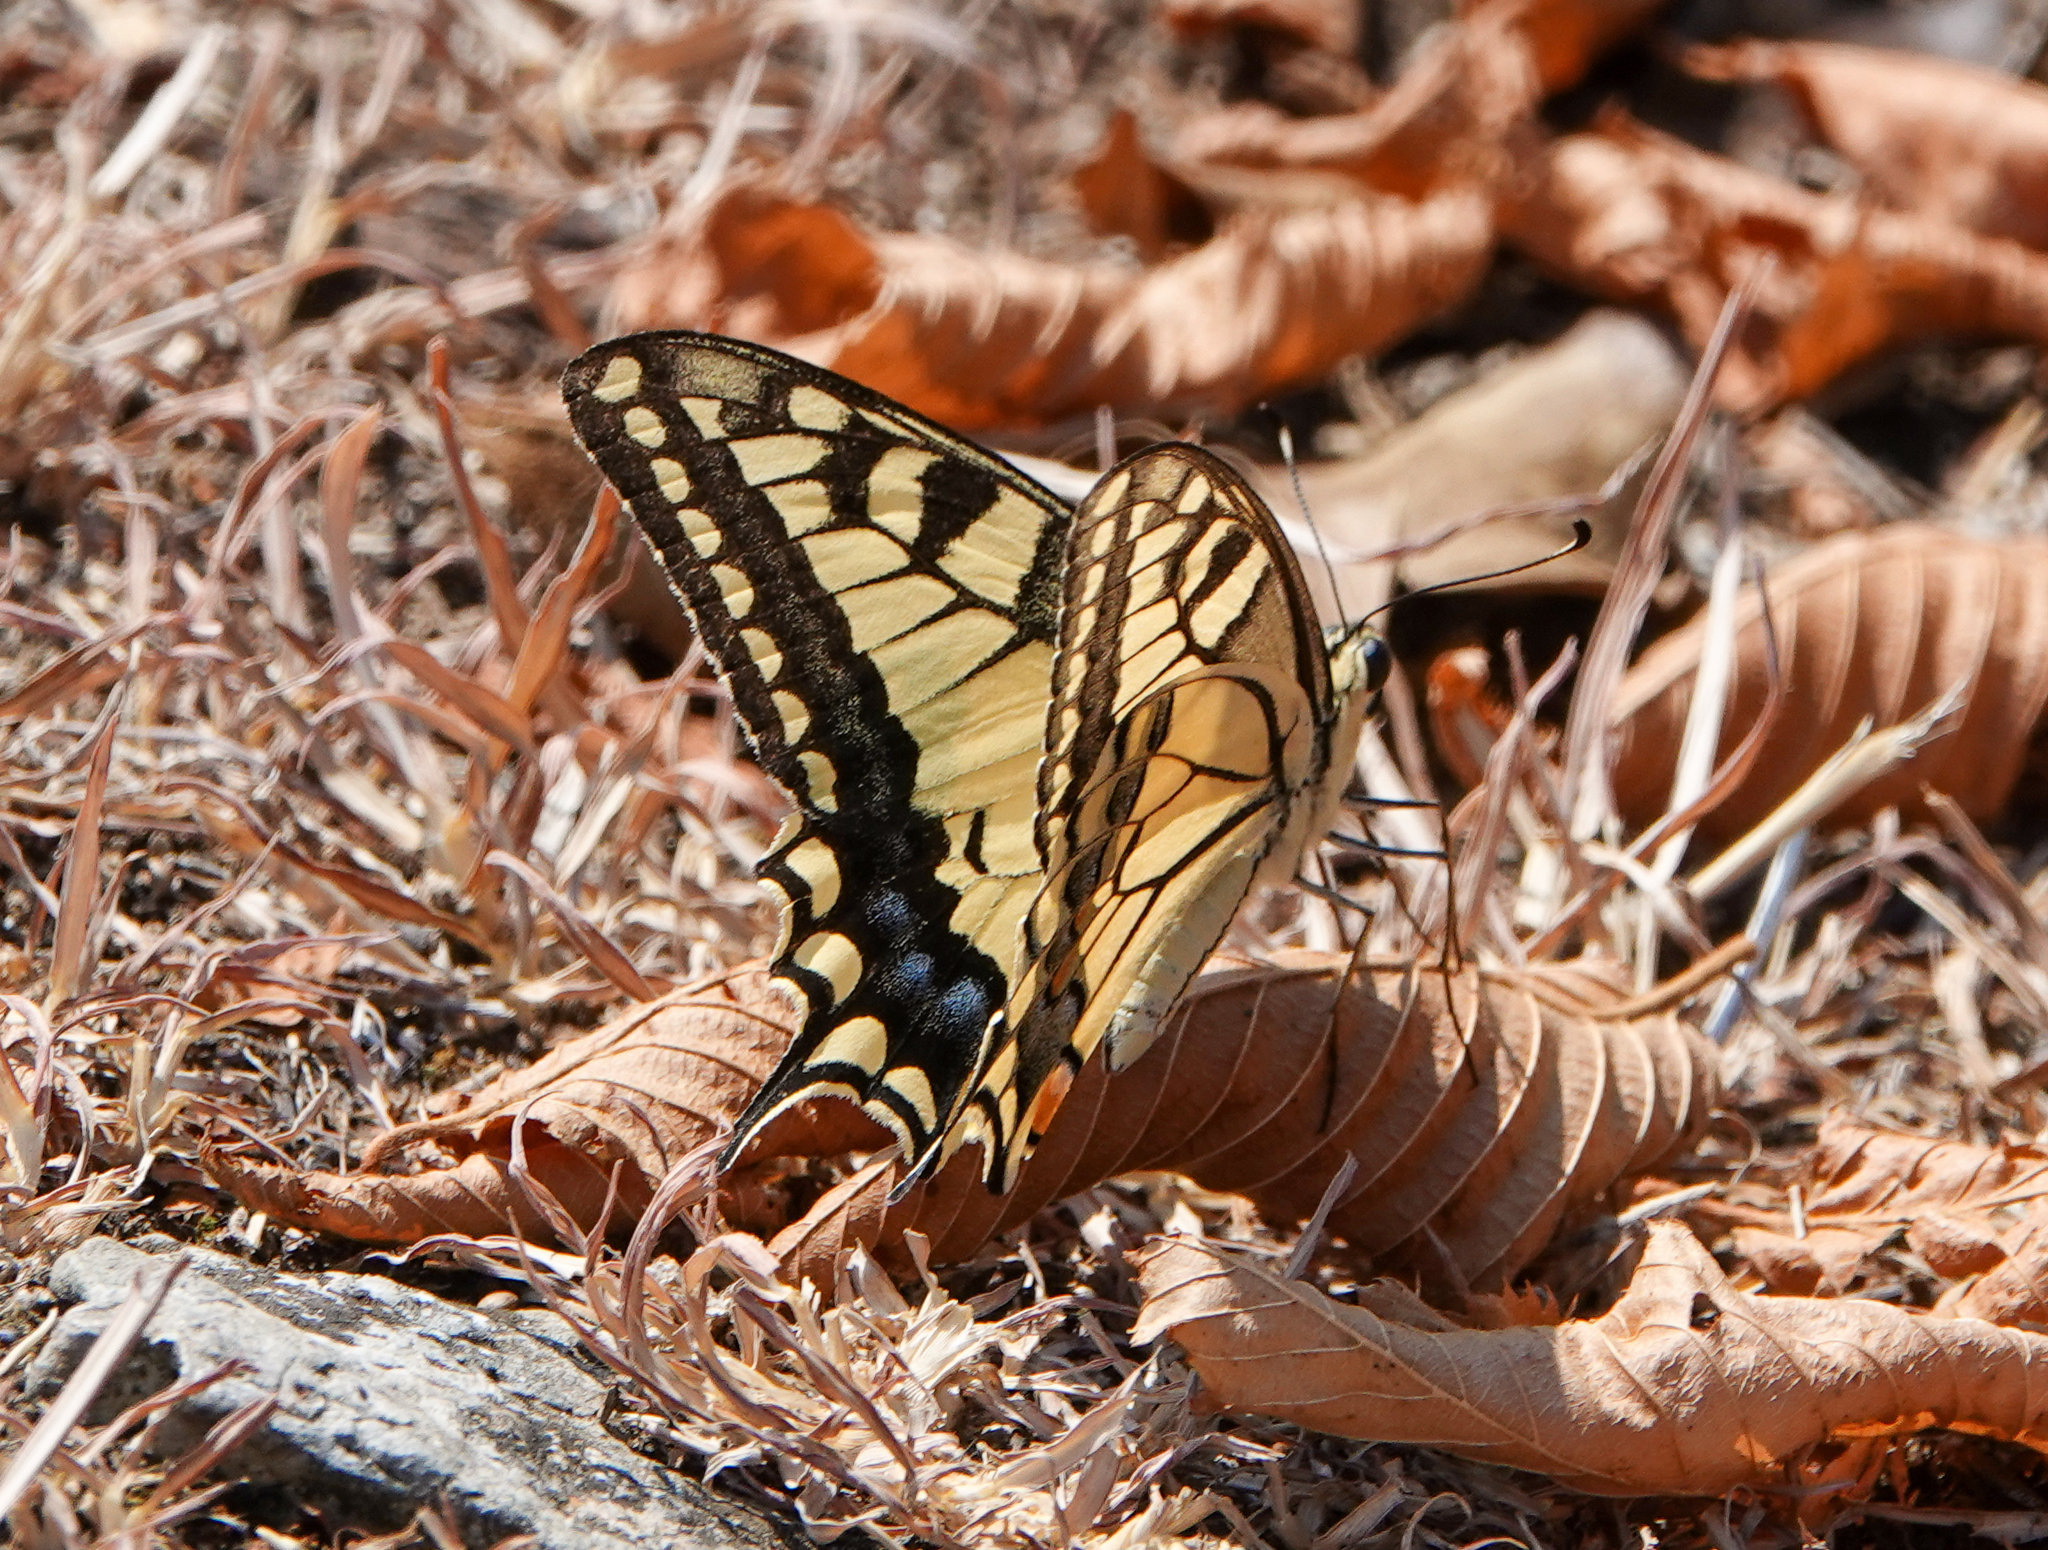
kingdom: Animalia
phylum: Arthropoda
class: Insecta
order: Lepidoptera
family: Papilionidae
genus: Papilio
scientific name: Papilio machaon
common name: Swallowtail
